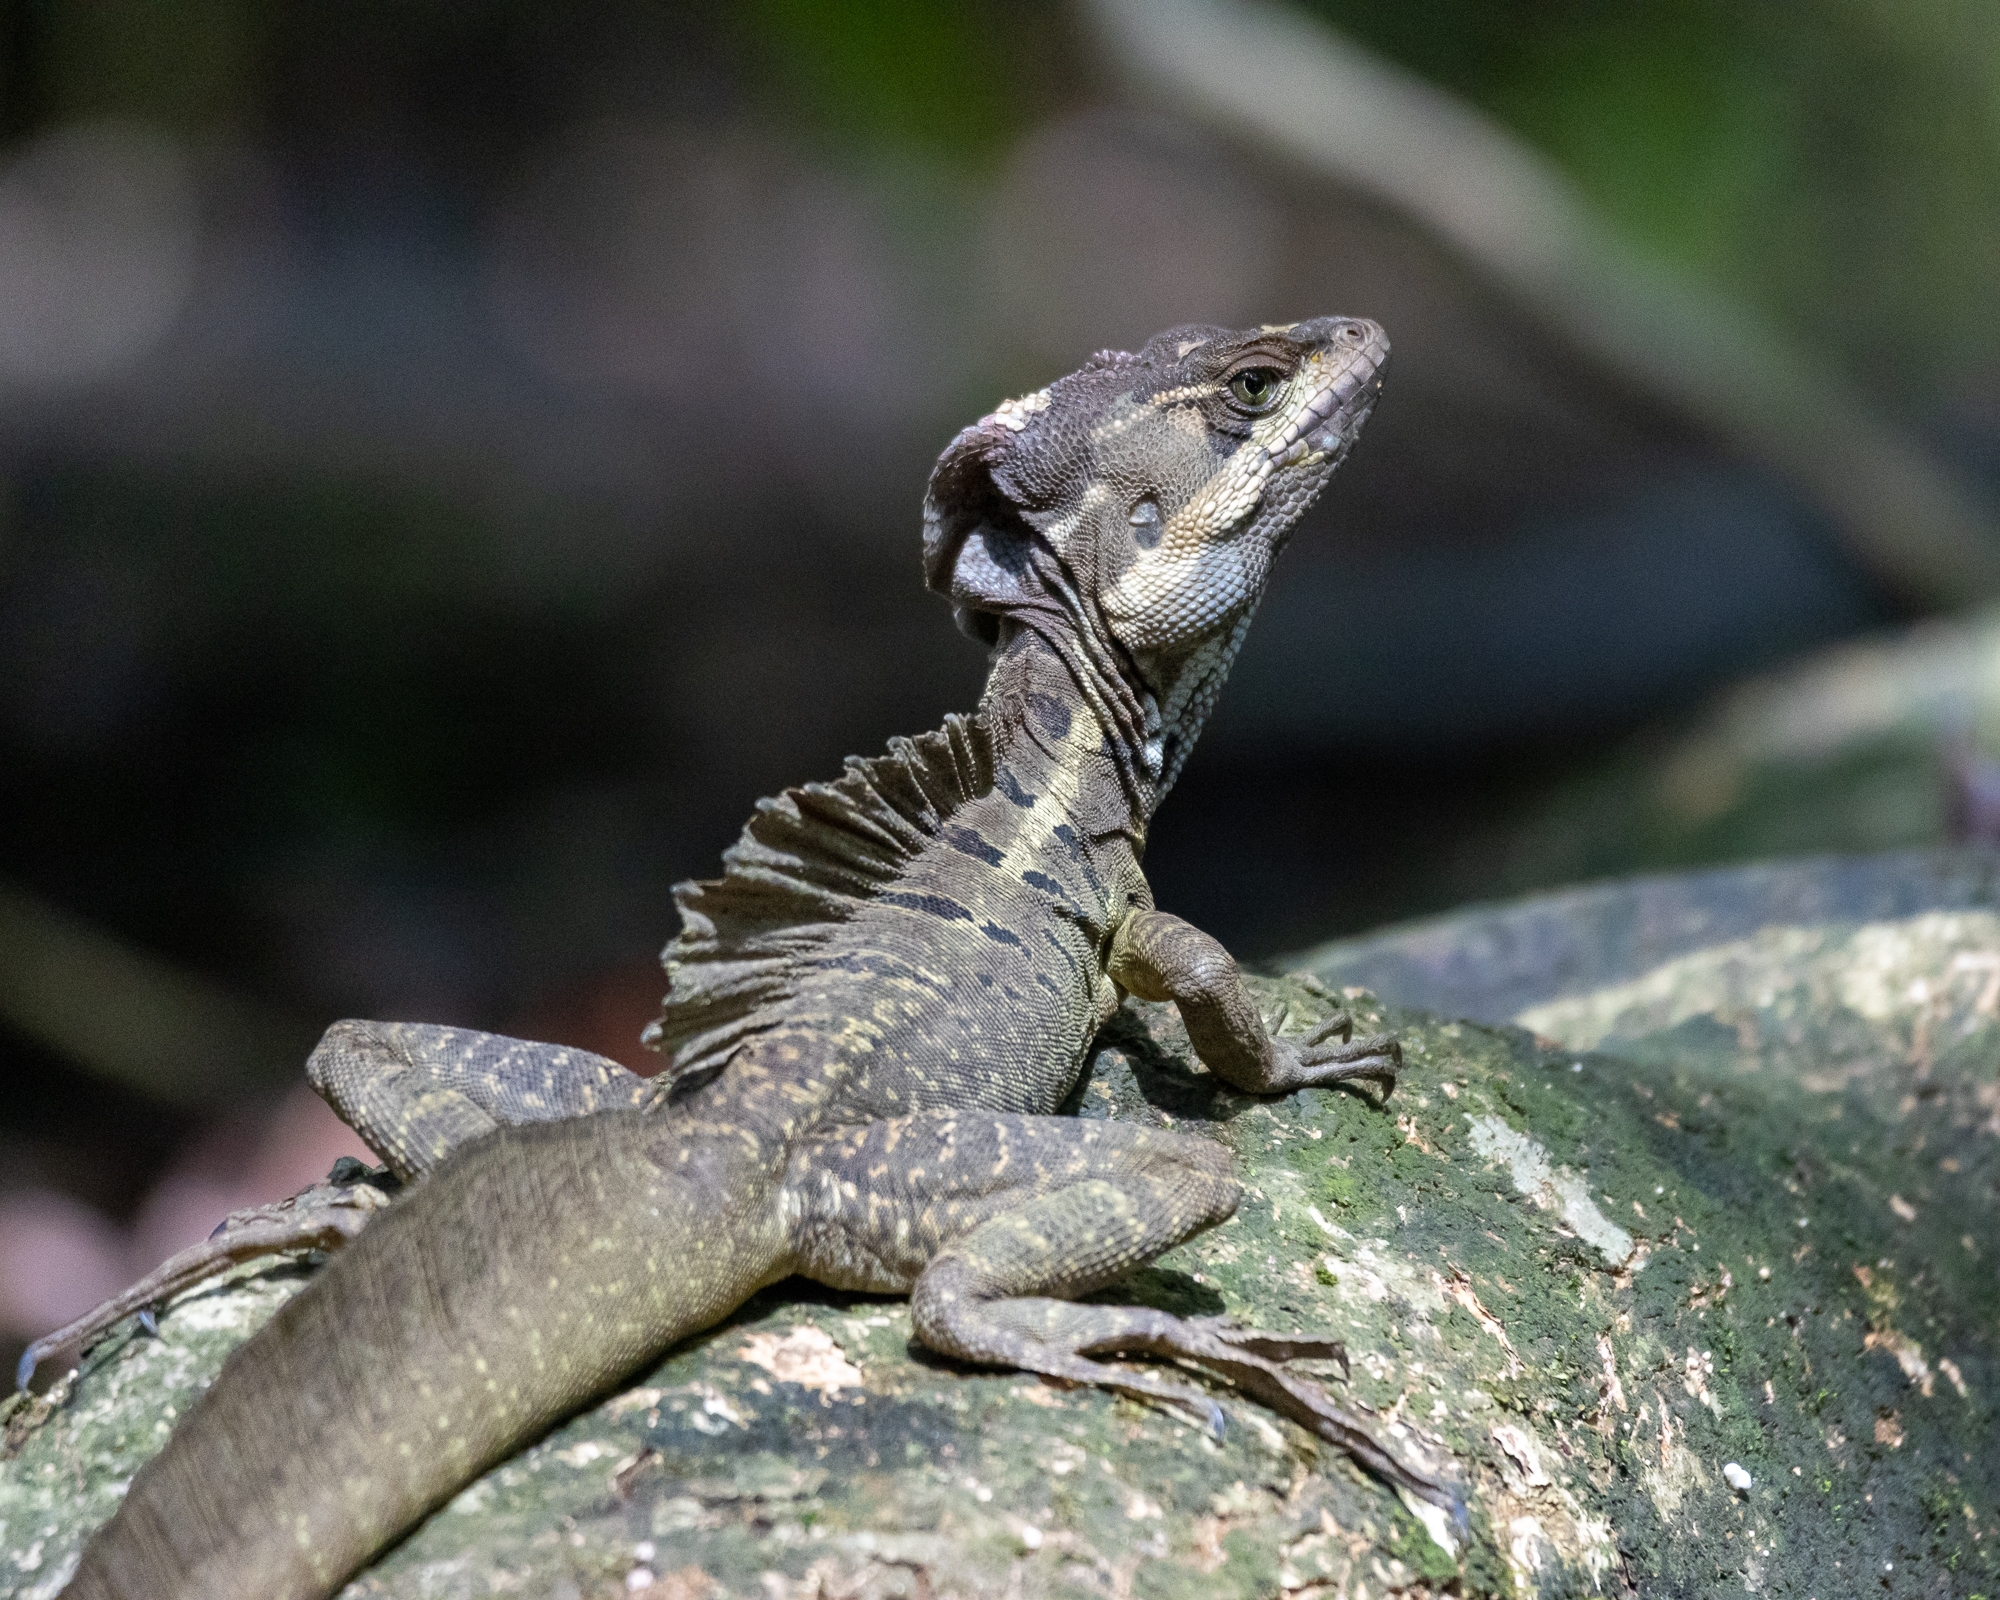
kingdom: Animalia
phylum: Chordata
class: Squamata
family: Corytophanidae
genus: Basiliscus
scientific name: Basiliscus basiliscus
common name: Common basilisk
